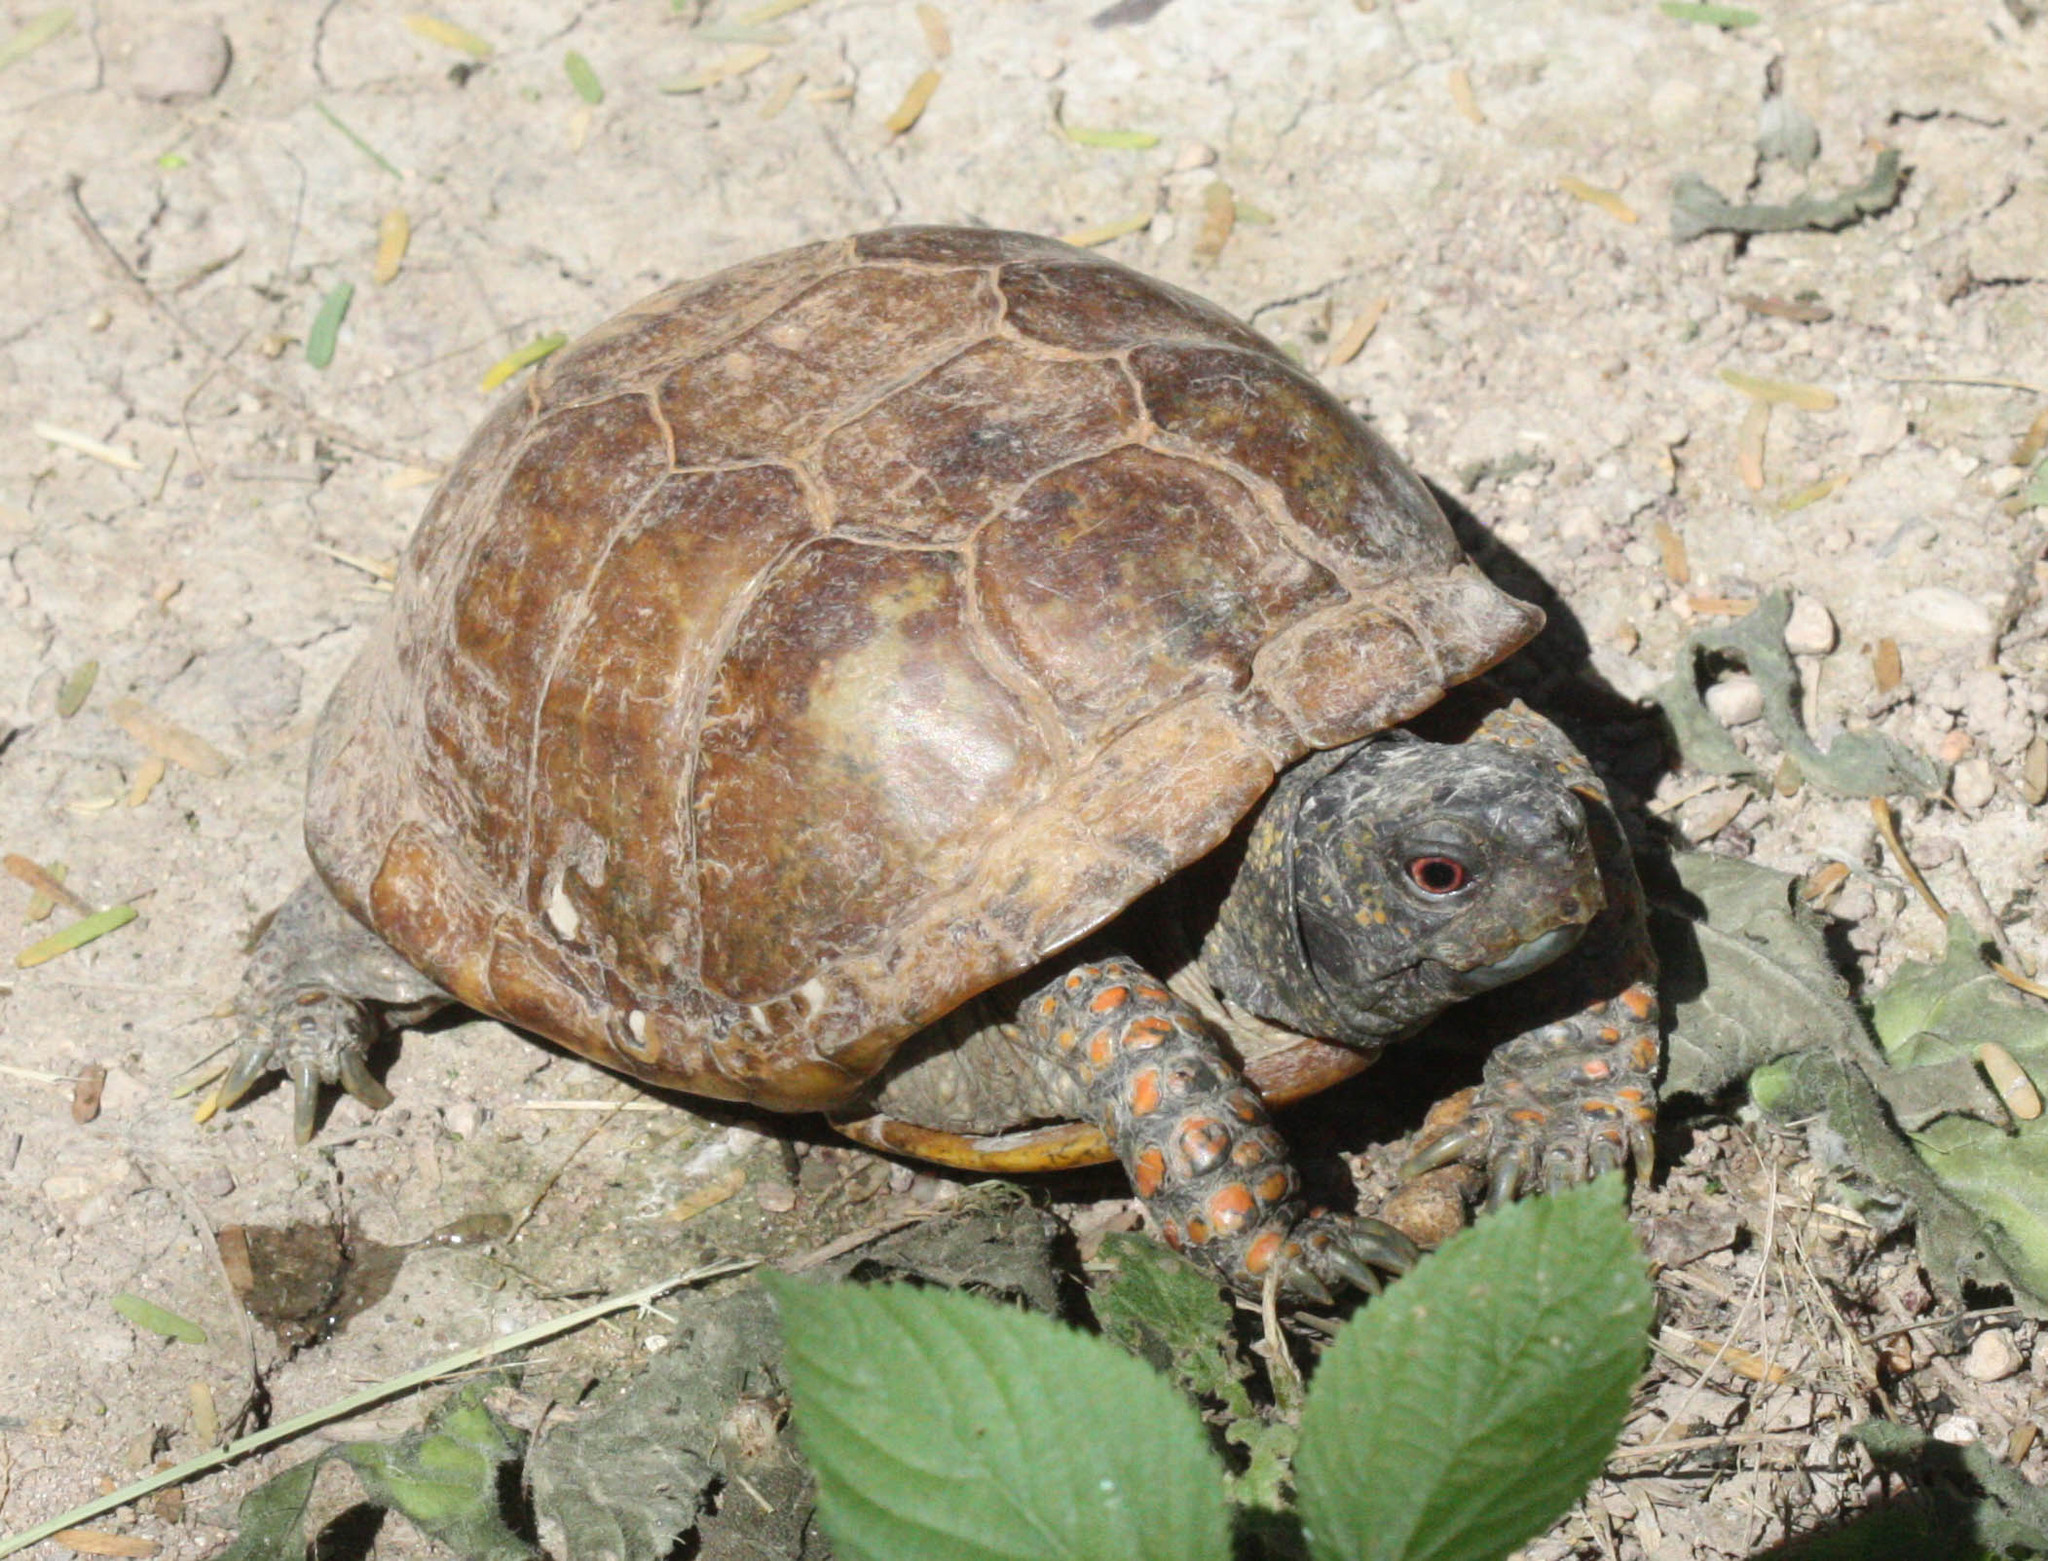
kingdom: Animalia
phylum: Chordata
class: Testudines
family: Emydidae
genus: Terrapene
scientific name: Terrapene ornata
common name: Western box turtle
